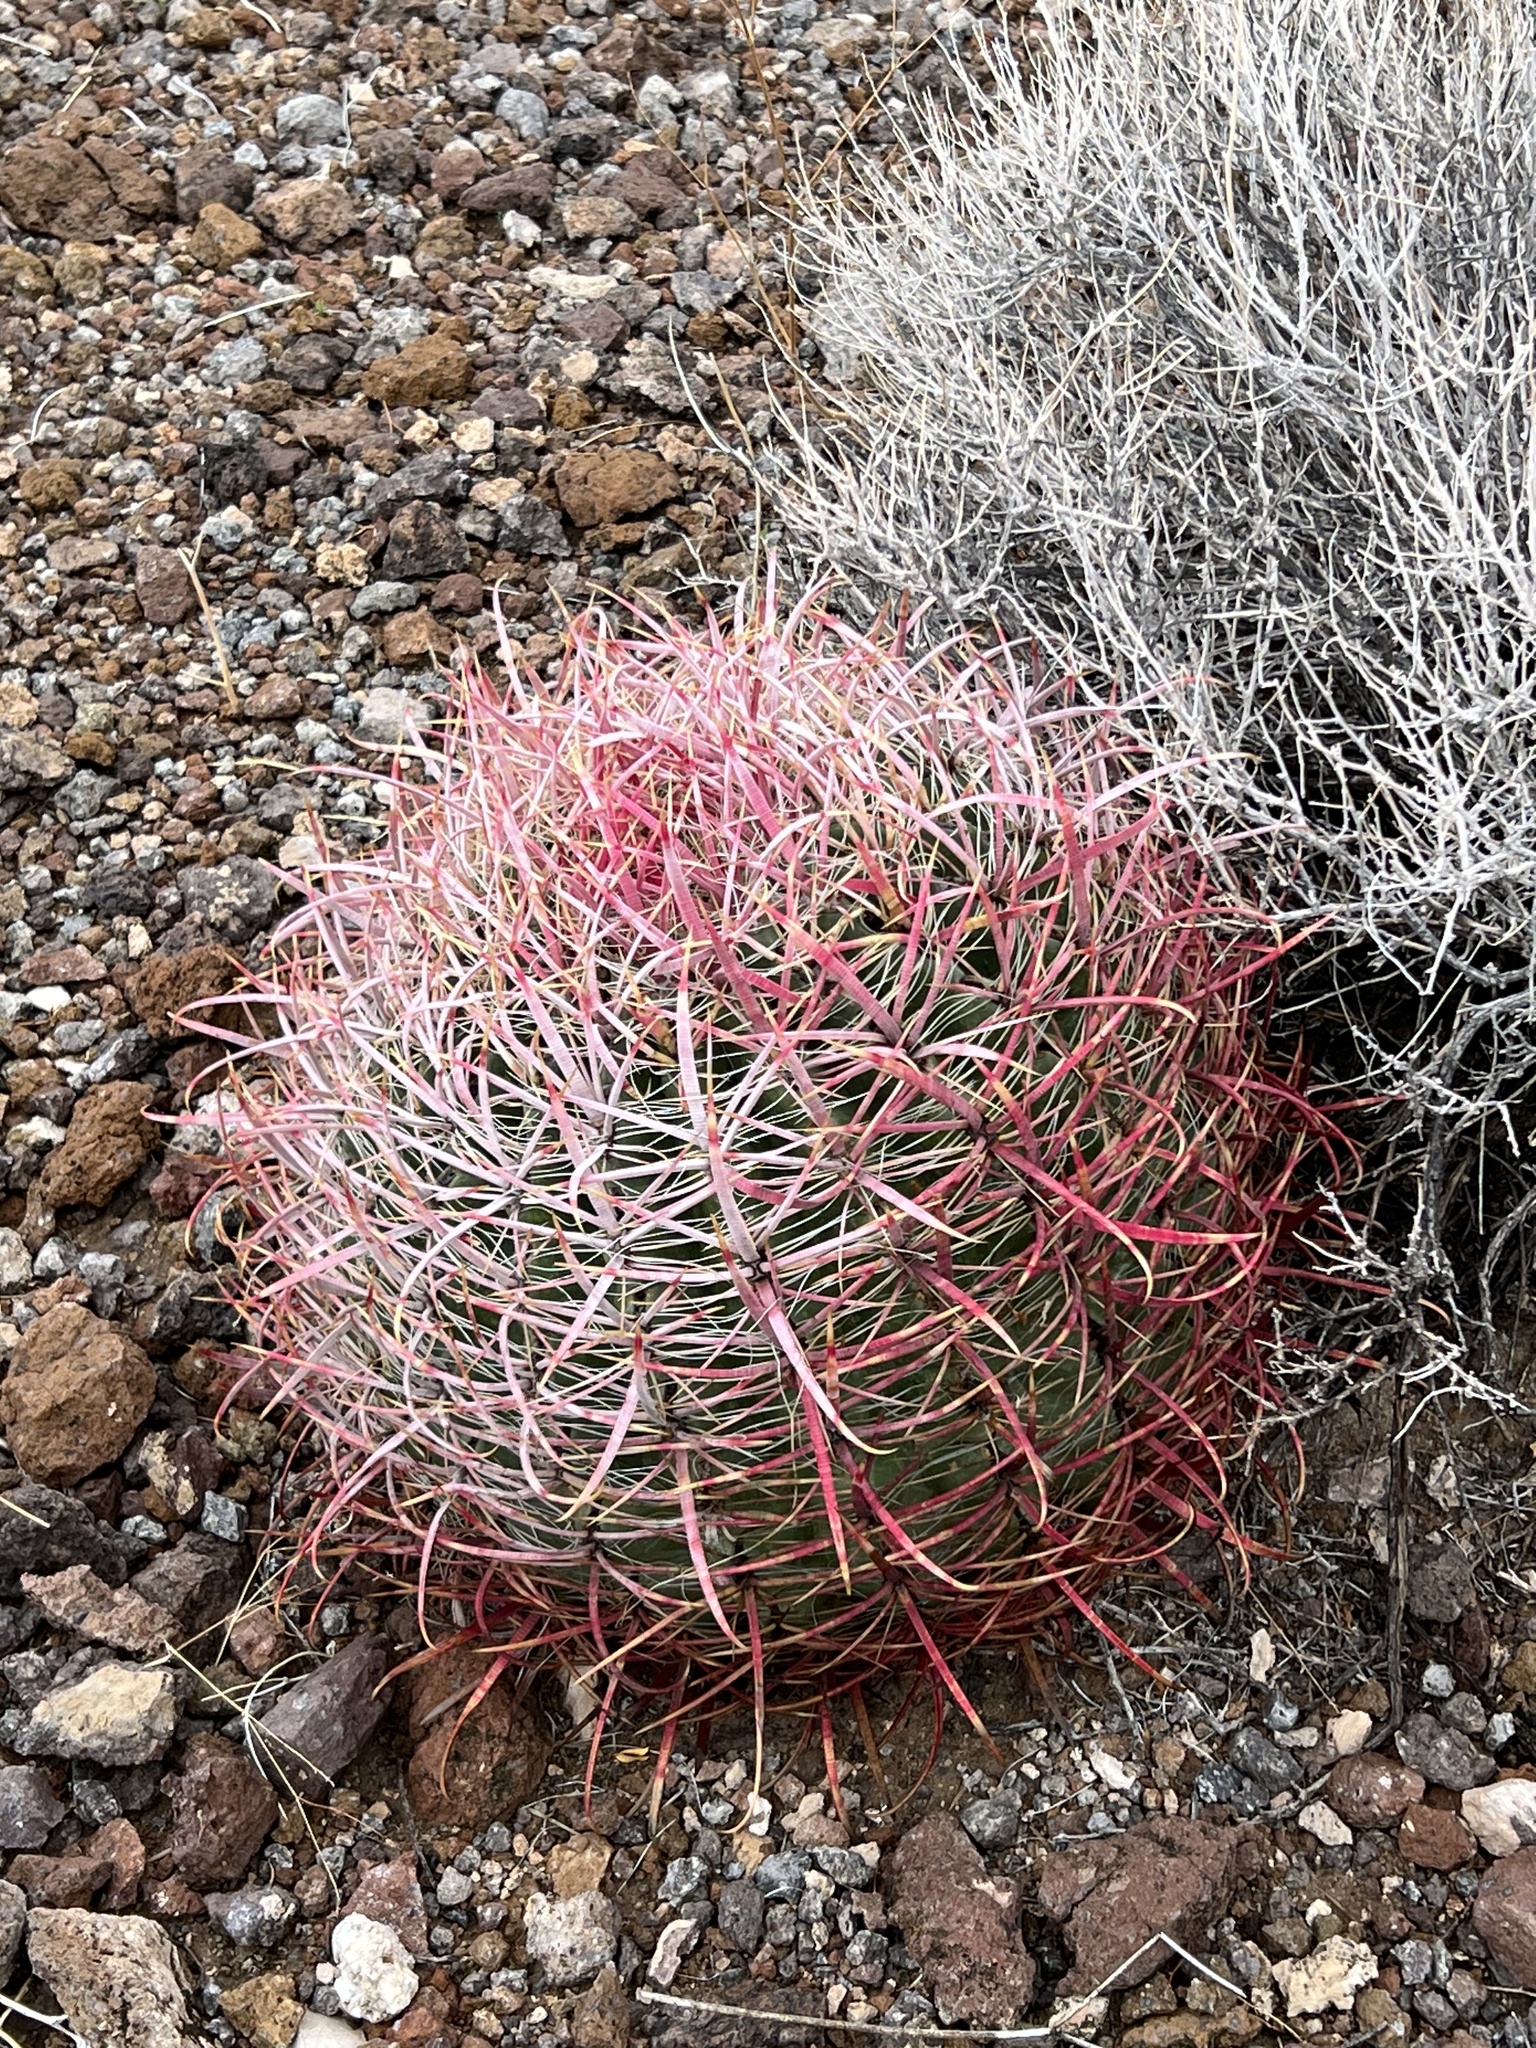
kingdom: Plantae
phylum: Tracheophyta
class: Magnoliopsida
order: Caryophyllales
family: Cactaceae
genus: Ferocactus
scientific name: Ferocactus cylindraceus
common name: California barrel cactus
